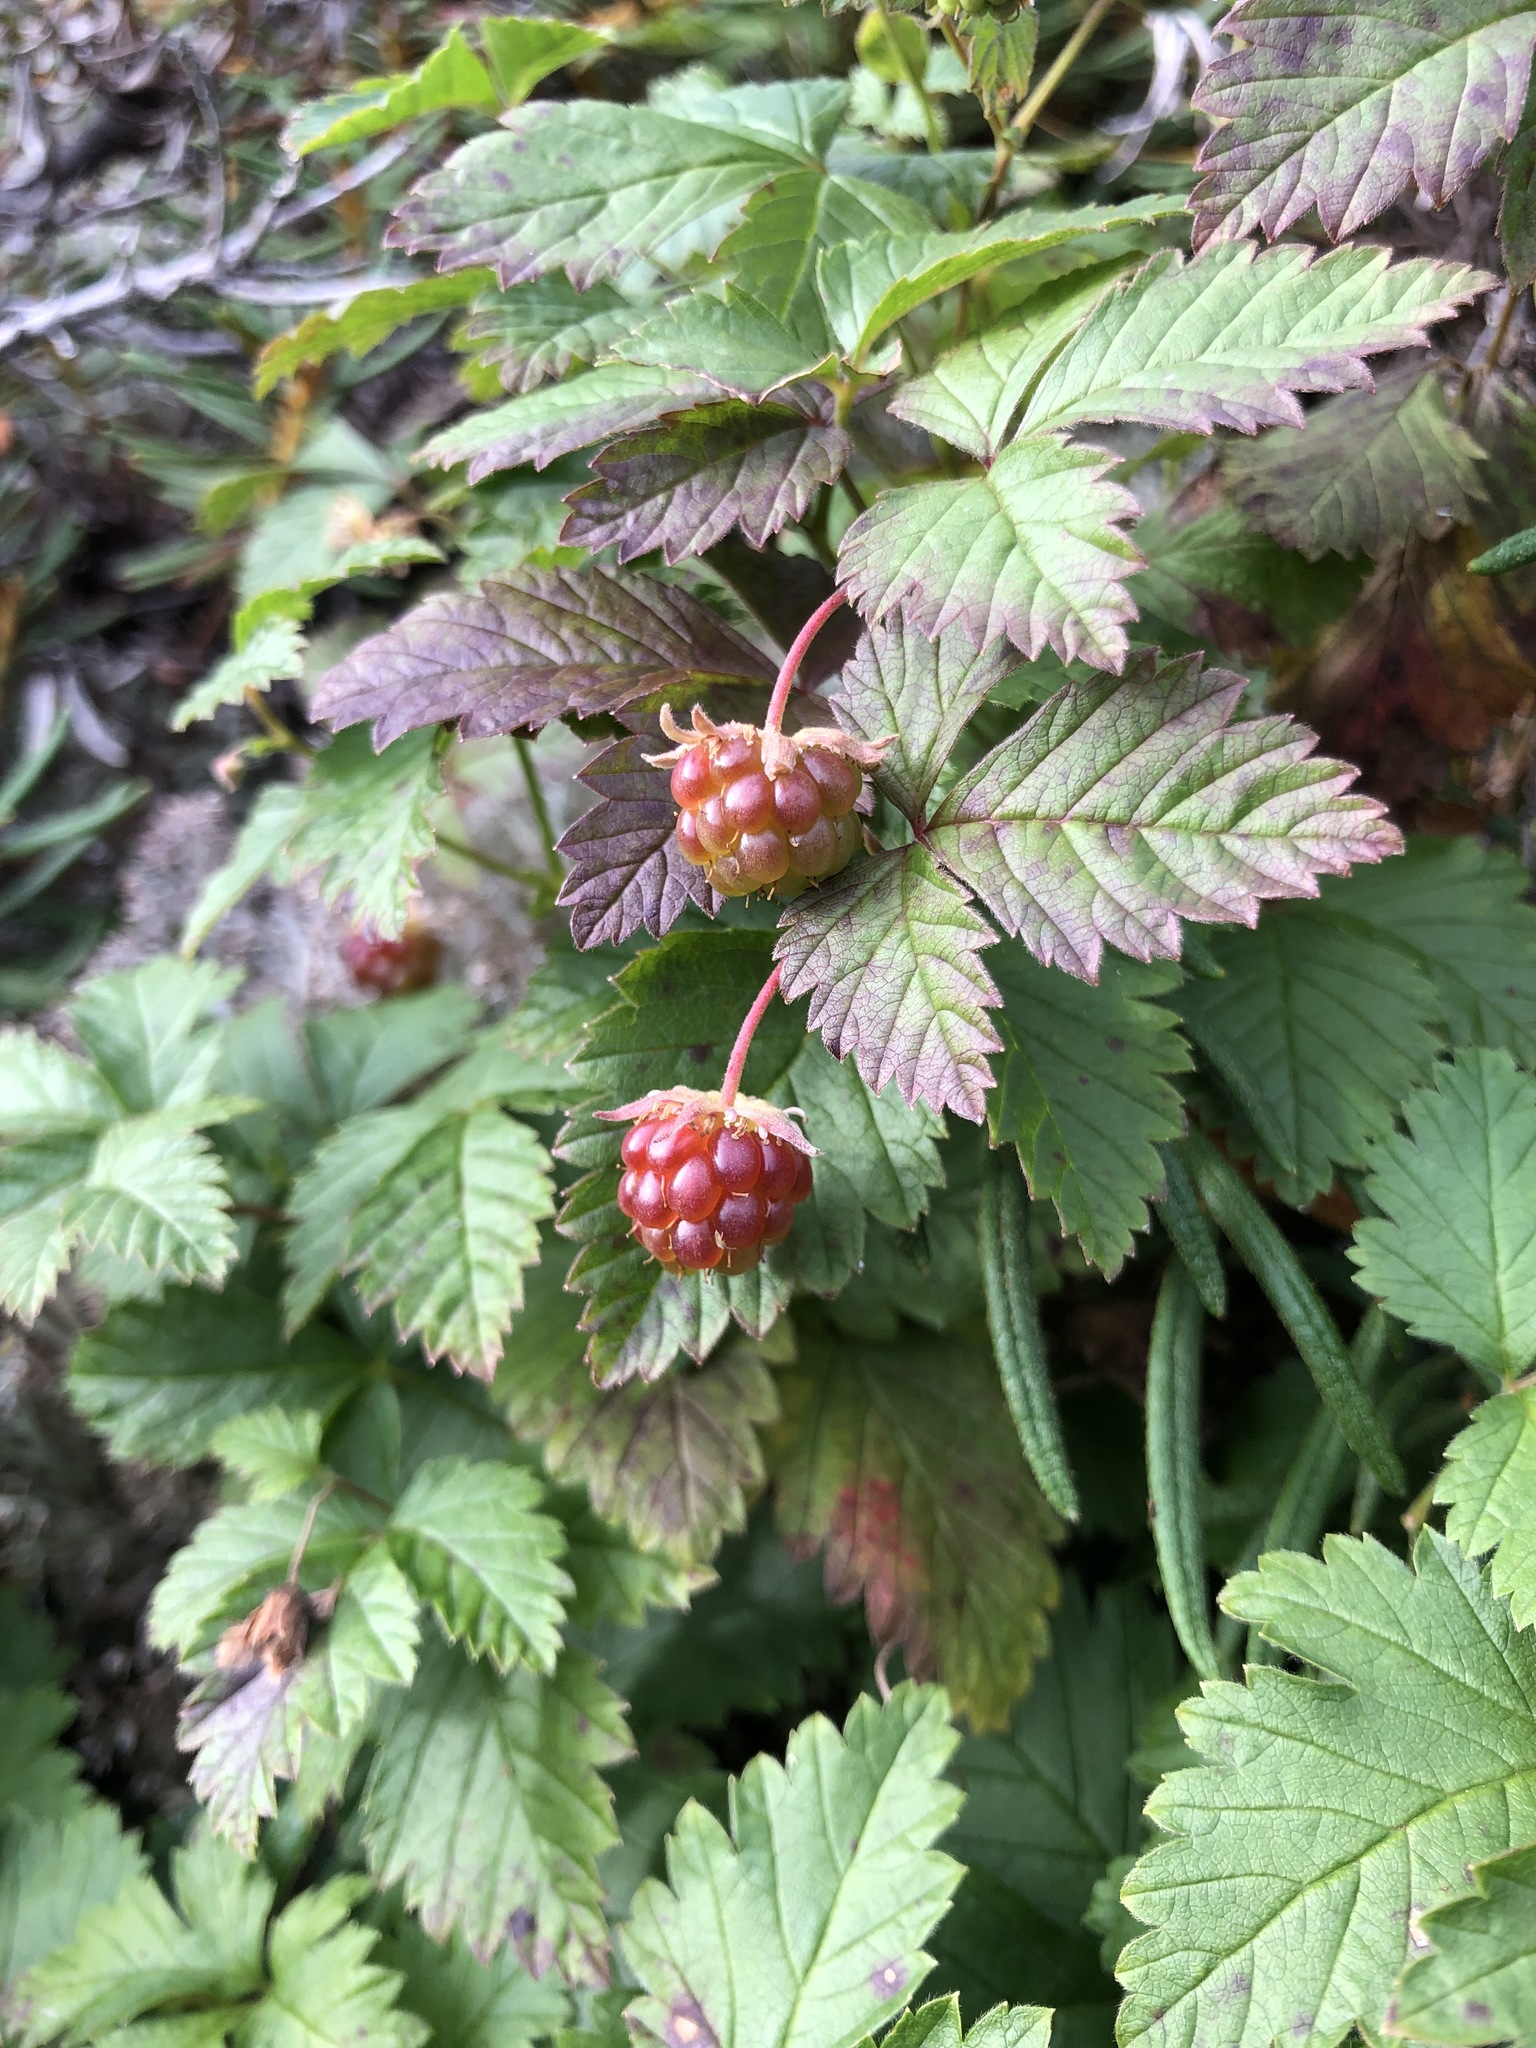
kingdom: Plantae
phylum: Tracheophyta
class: Magnoliopsida
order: Rosales
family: Rosaceae
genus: Rubus
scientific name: Rubus arcticus
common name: Arctic bramble
